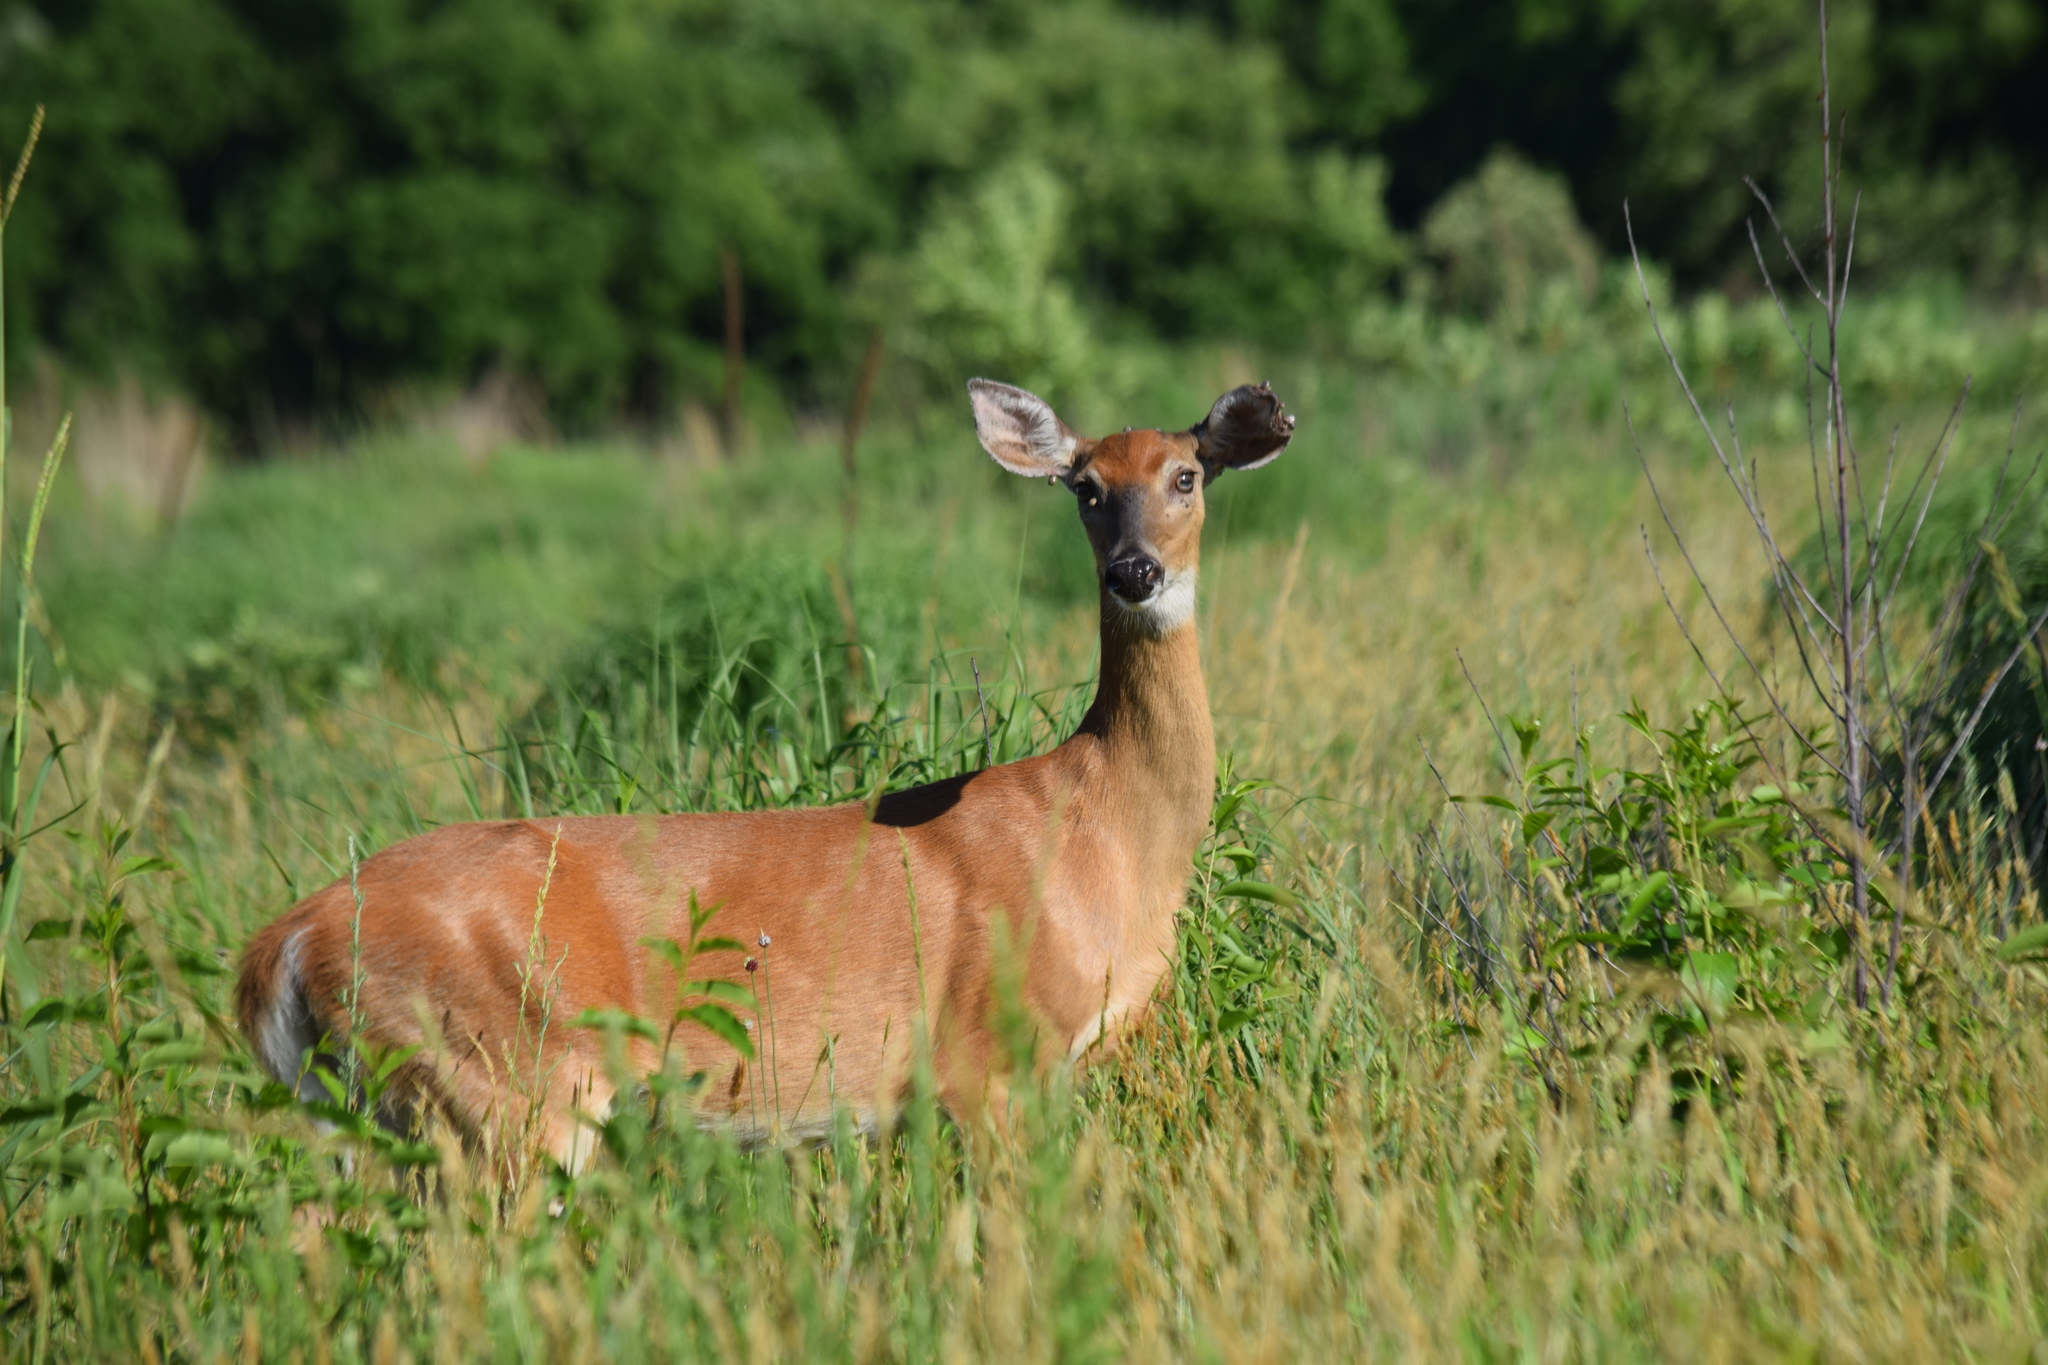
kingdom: Animalia
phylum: Chordata
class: Mammalia
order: Artiodactyla
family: Cervidae
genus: Odocoileus
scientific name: Odocoileus virginianus
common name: White-tailed deer
